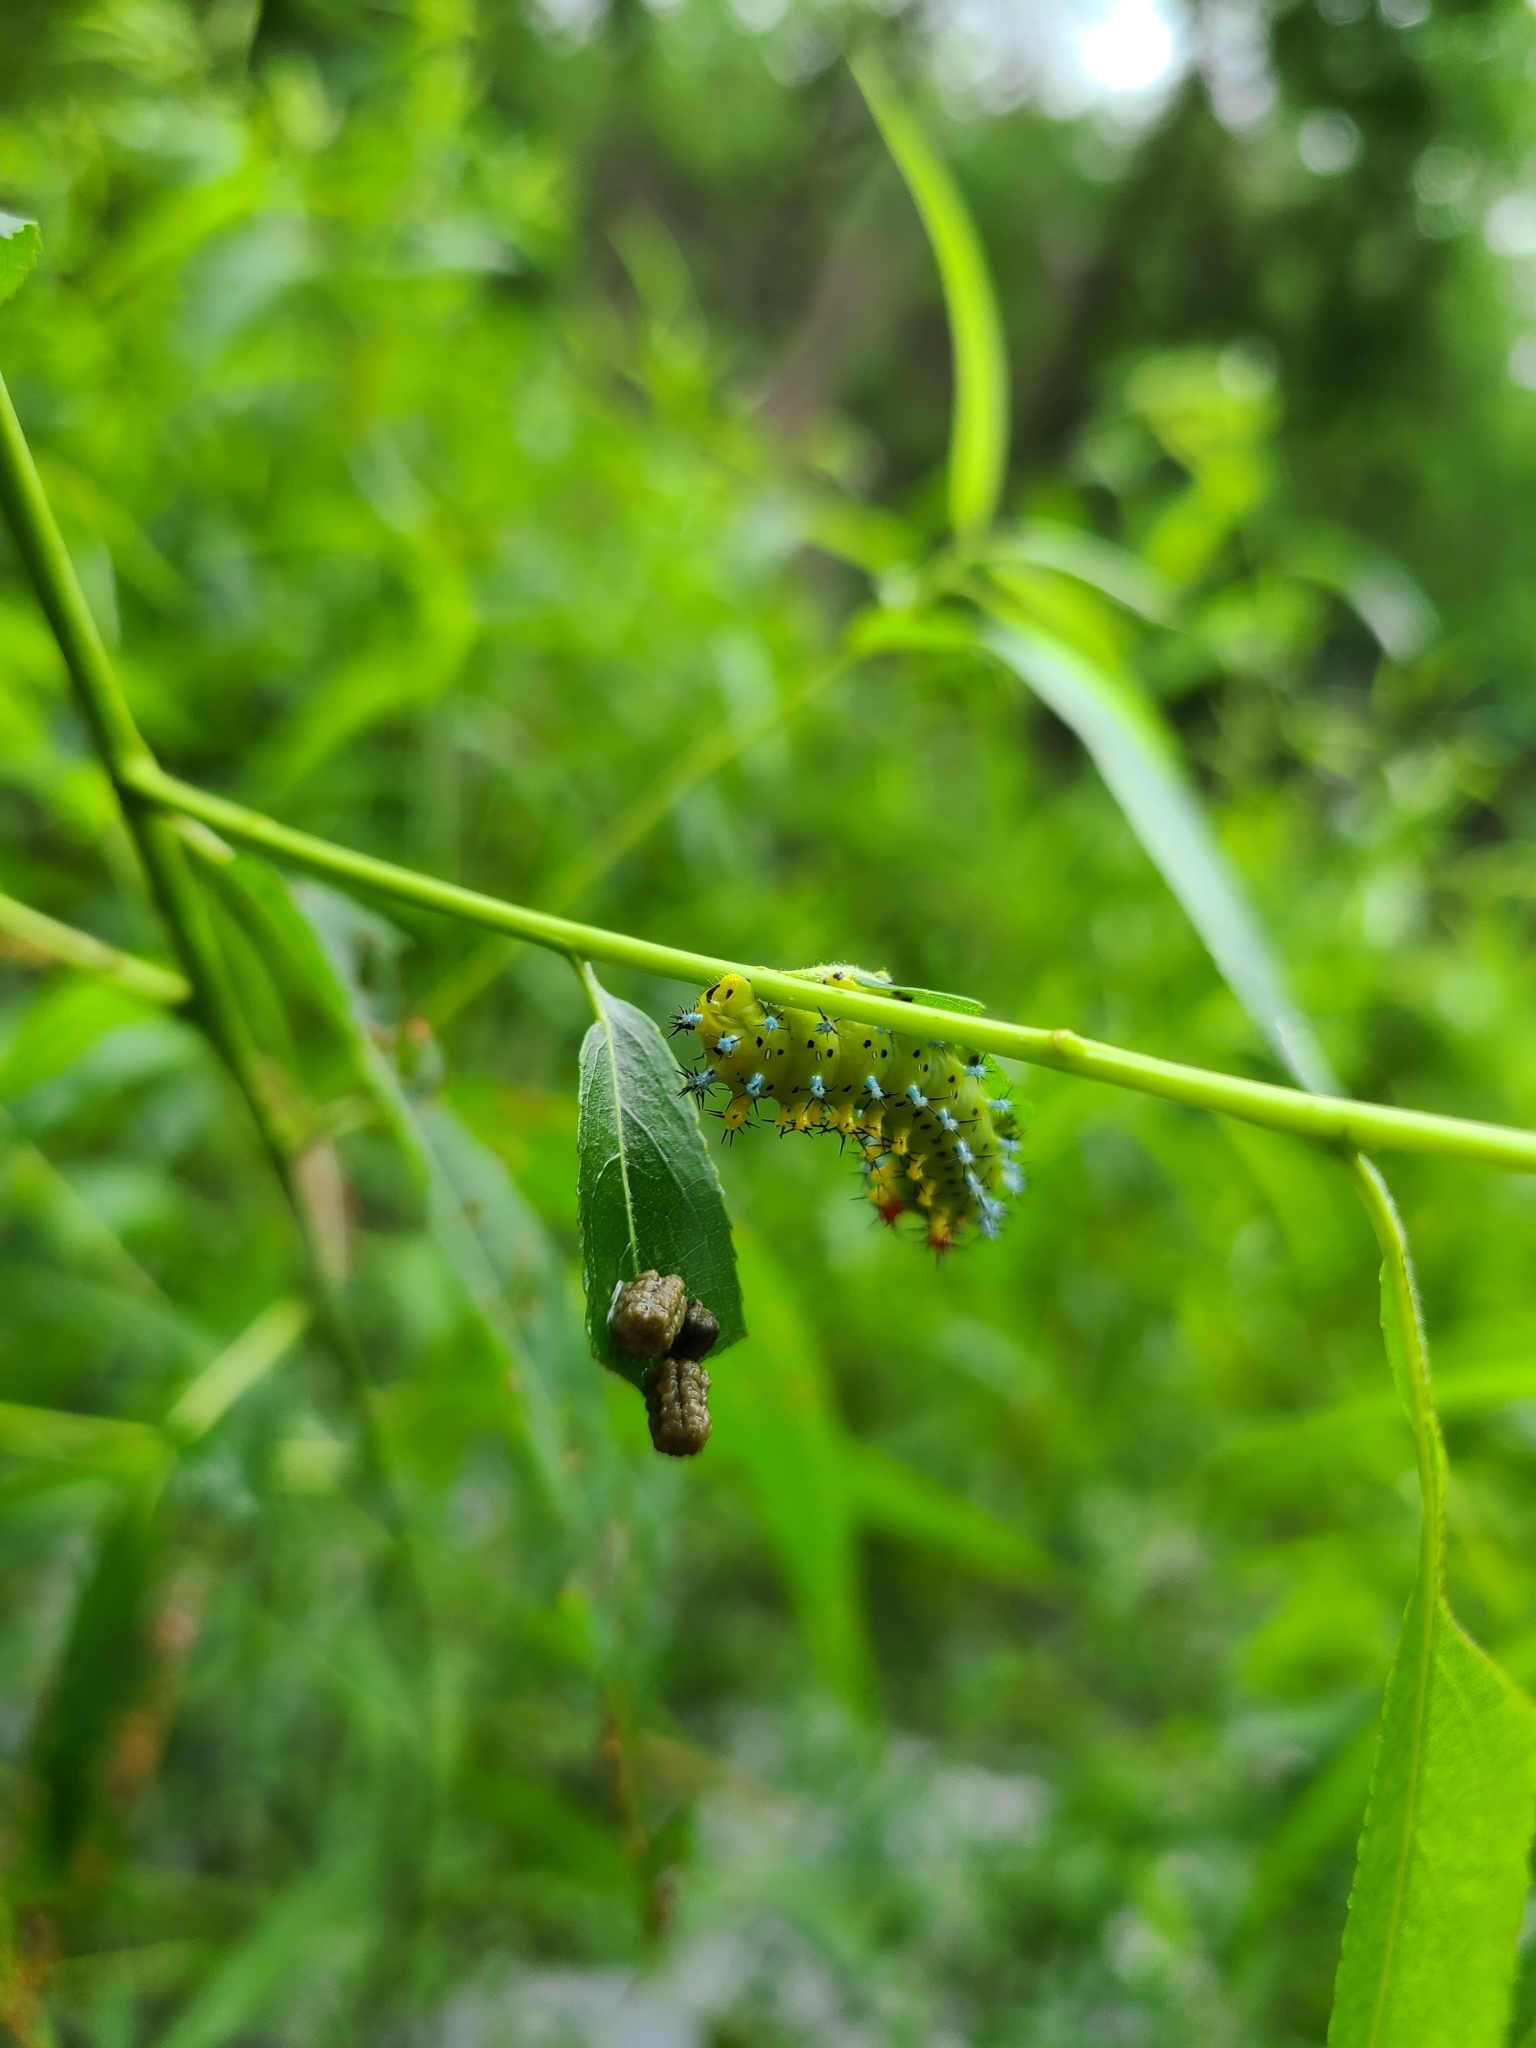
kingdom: Animalia
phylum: Arthropoda
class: Insecta
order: Lepidoptera
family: Saturniidae
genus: Hyalophora
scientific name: Hyalophora cecropia
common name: Cecropia silkmoth
